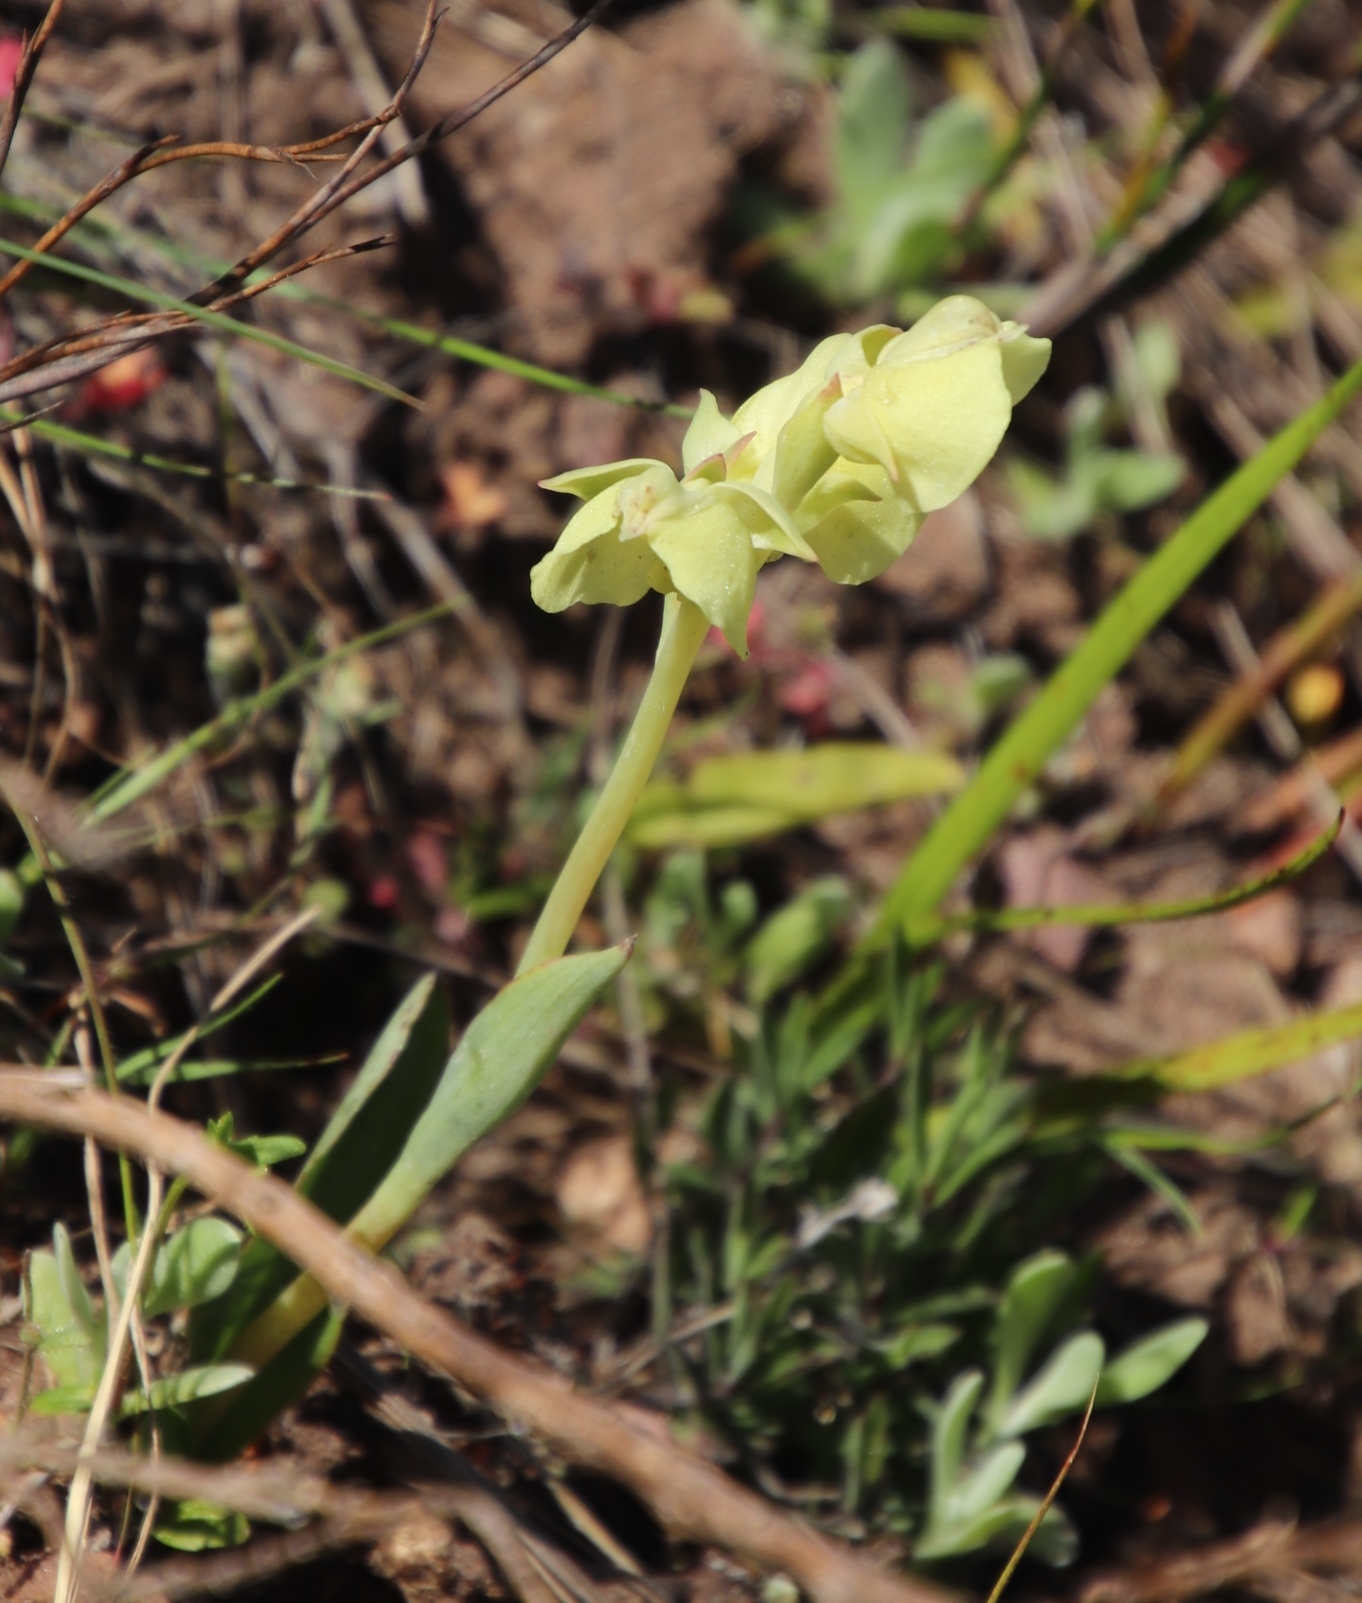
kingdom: Plantae
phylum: Tracheophyta
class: Liliopsida
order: Asparagales
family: Orchidaceae
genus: Pterygodium
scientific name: Pterygodium catholicum
